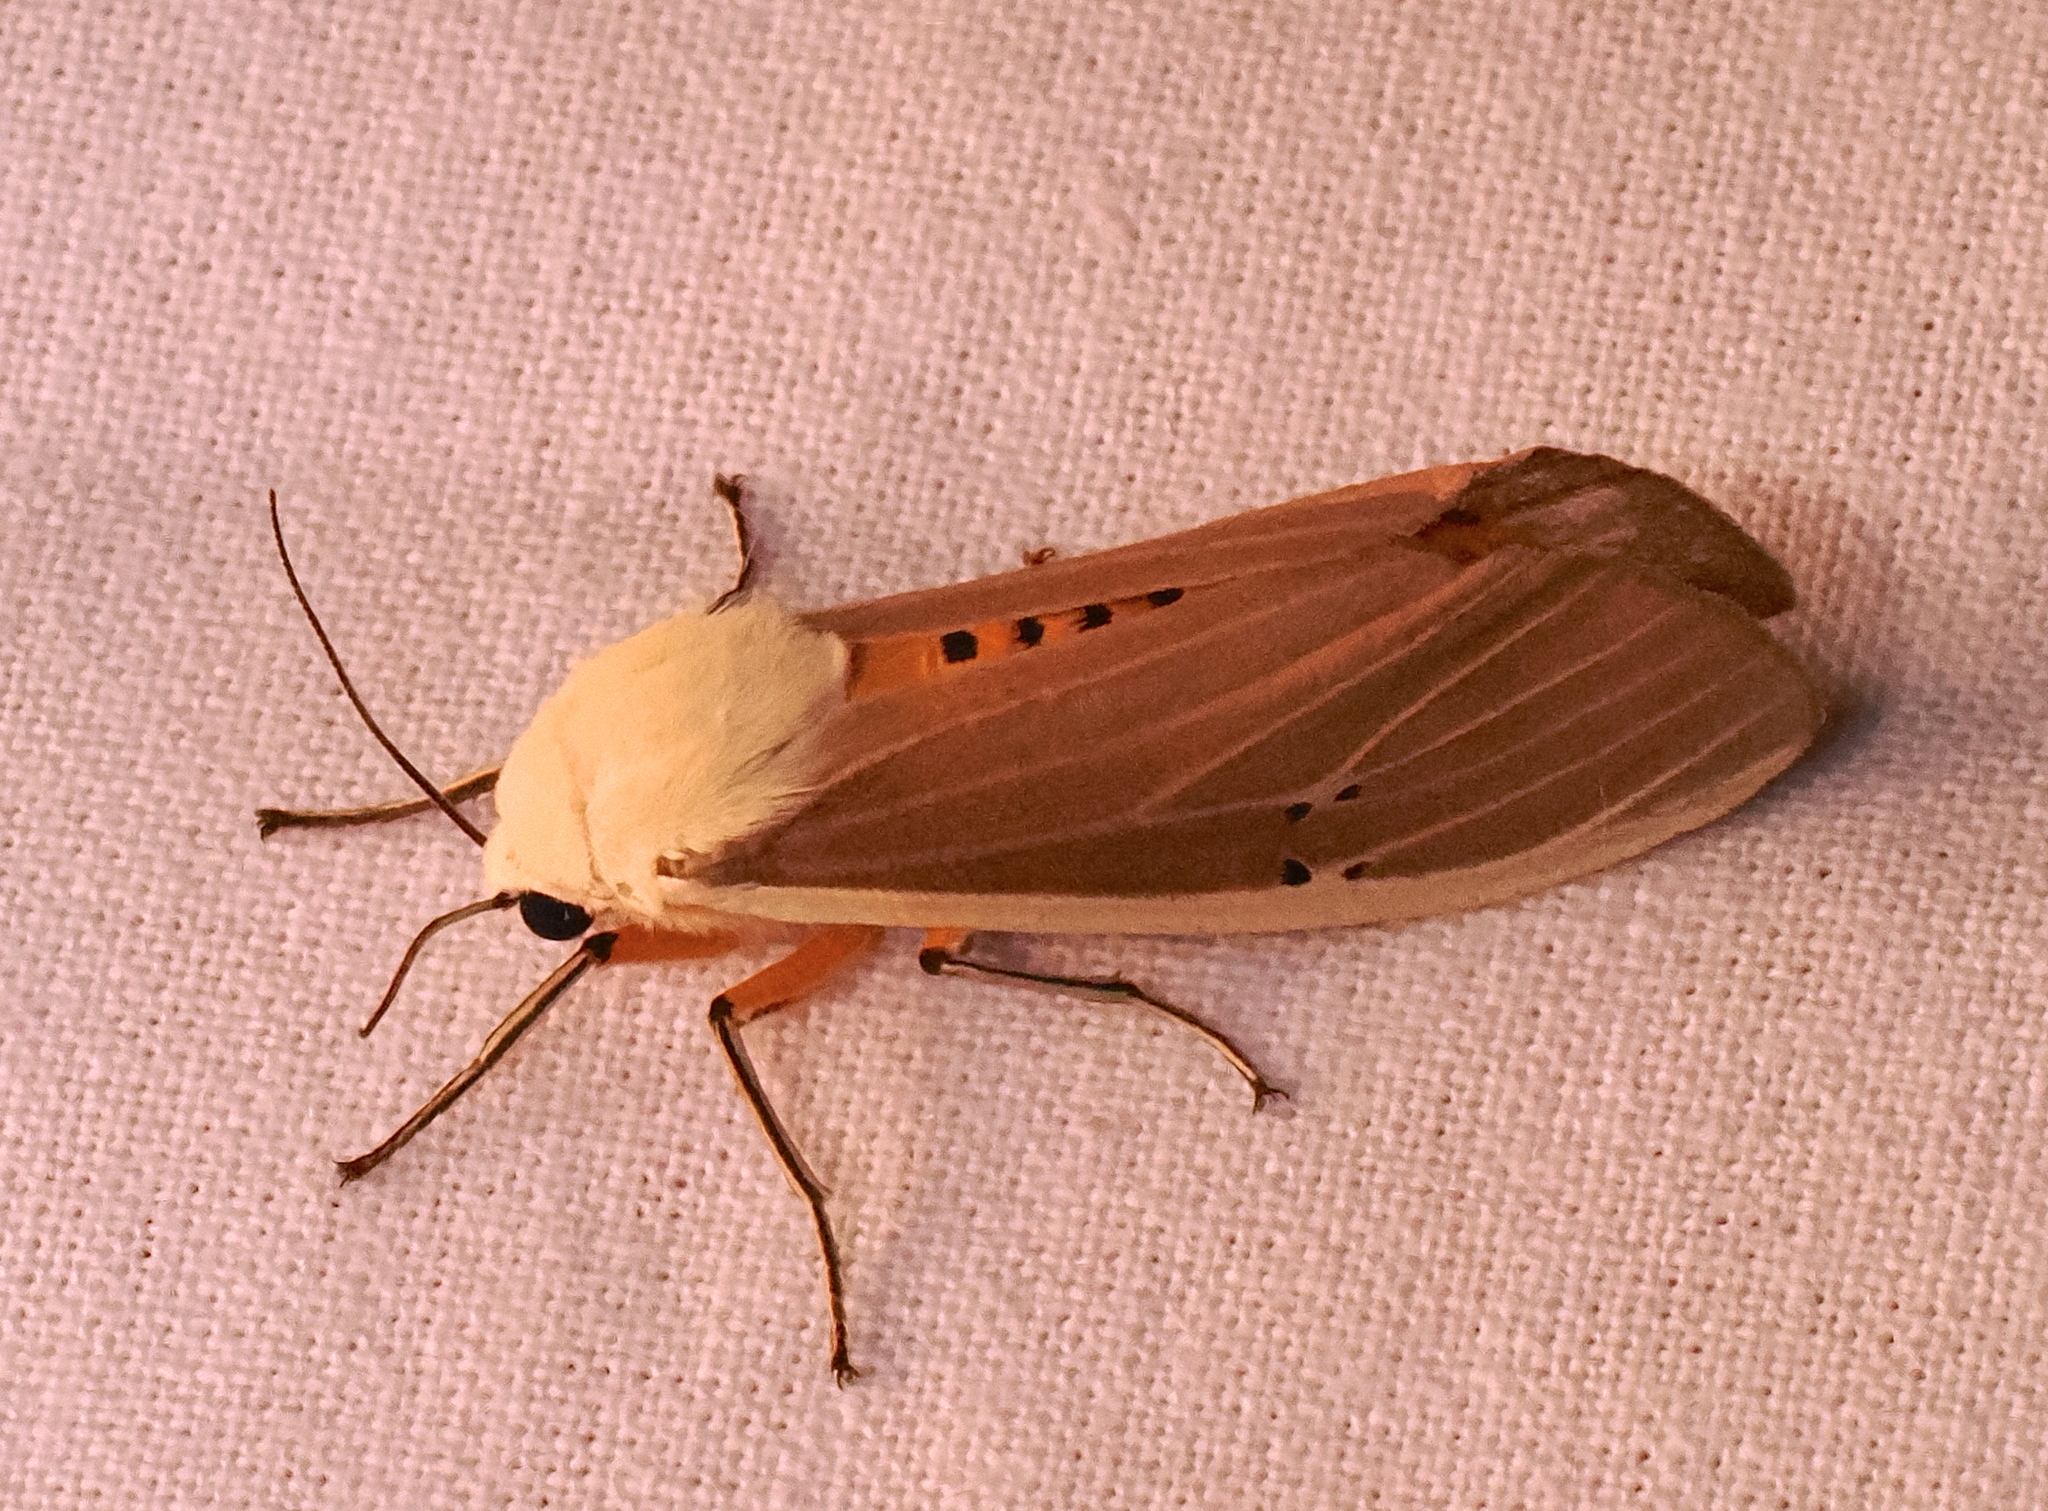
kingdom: Animalia
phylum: Arthropoda
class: Insecta
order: Lepidoptera
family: Erebidae
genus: Creatonotos
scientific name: Creatonotos transiens
